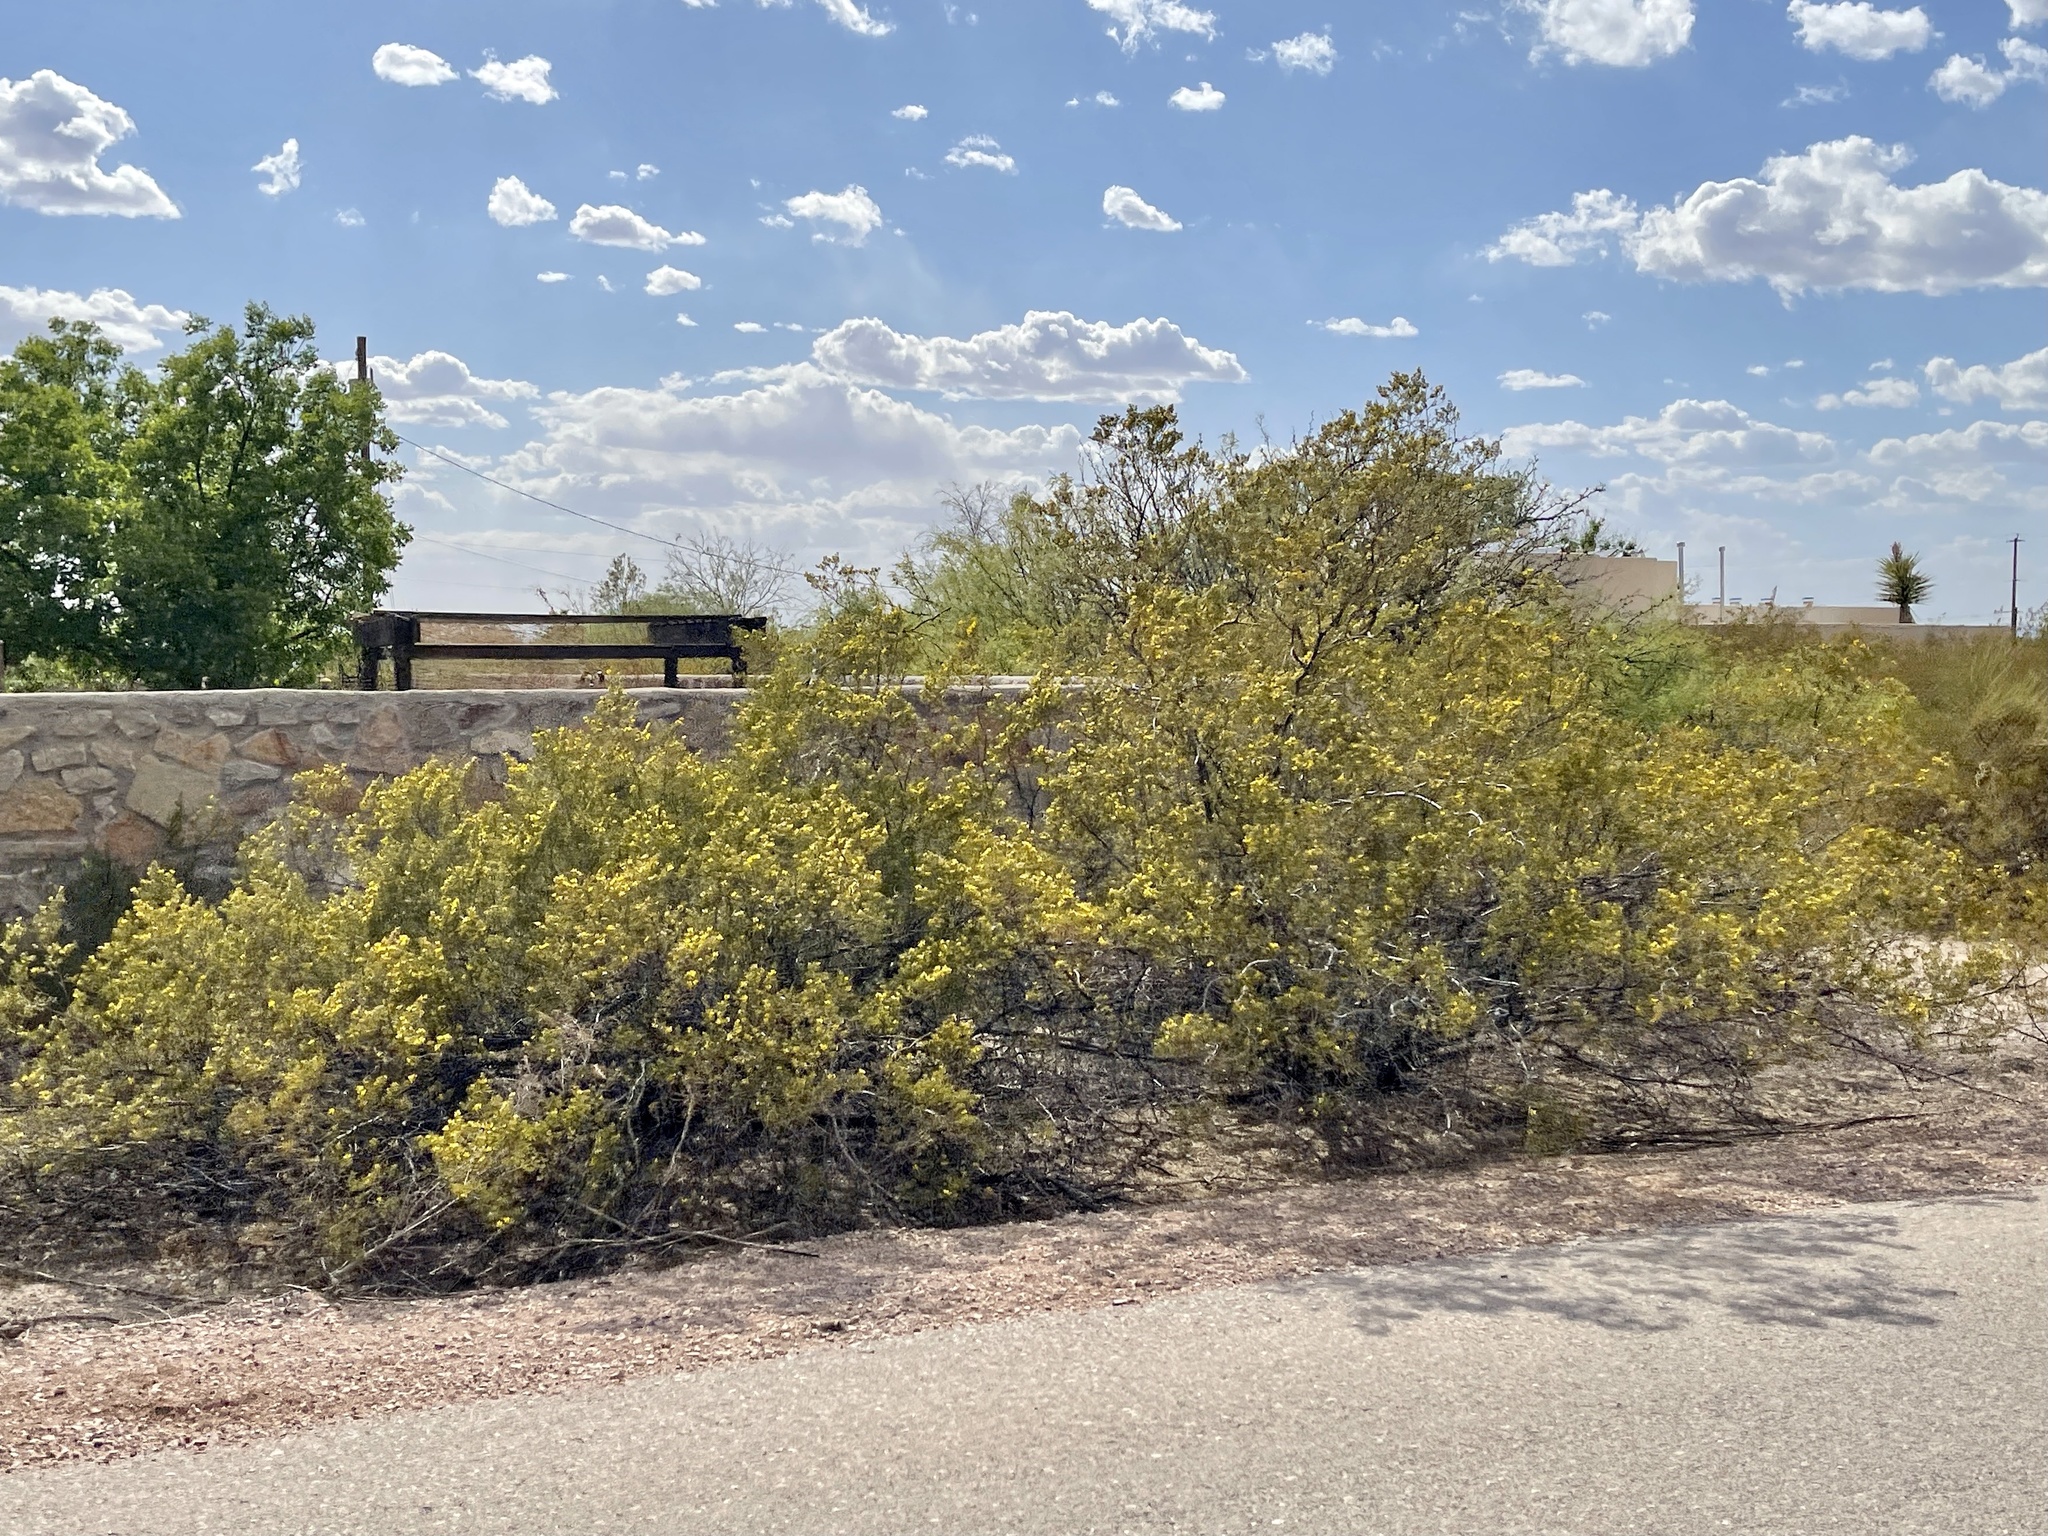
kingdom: Plantae
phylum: Tracheophyta
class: Magnoliopsida
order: Zygophyllales
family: Zygophyllaceae
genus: Larrea
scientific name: Larrea tridentata
